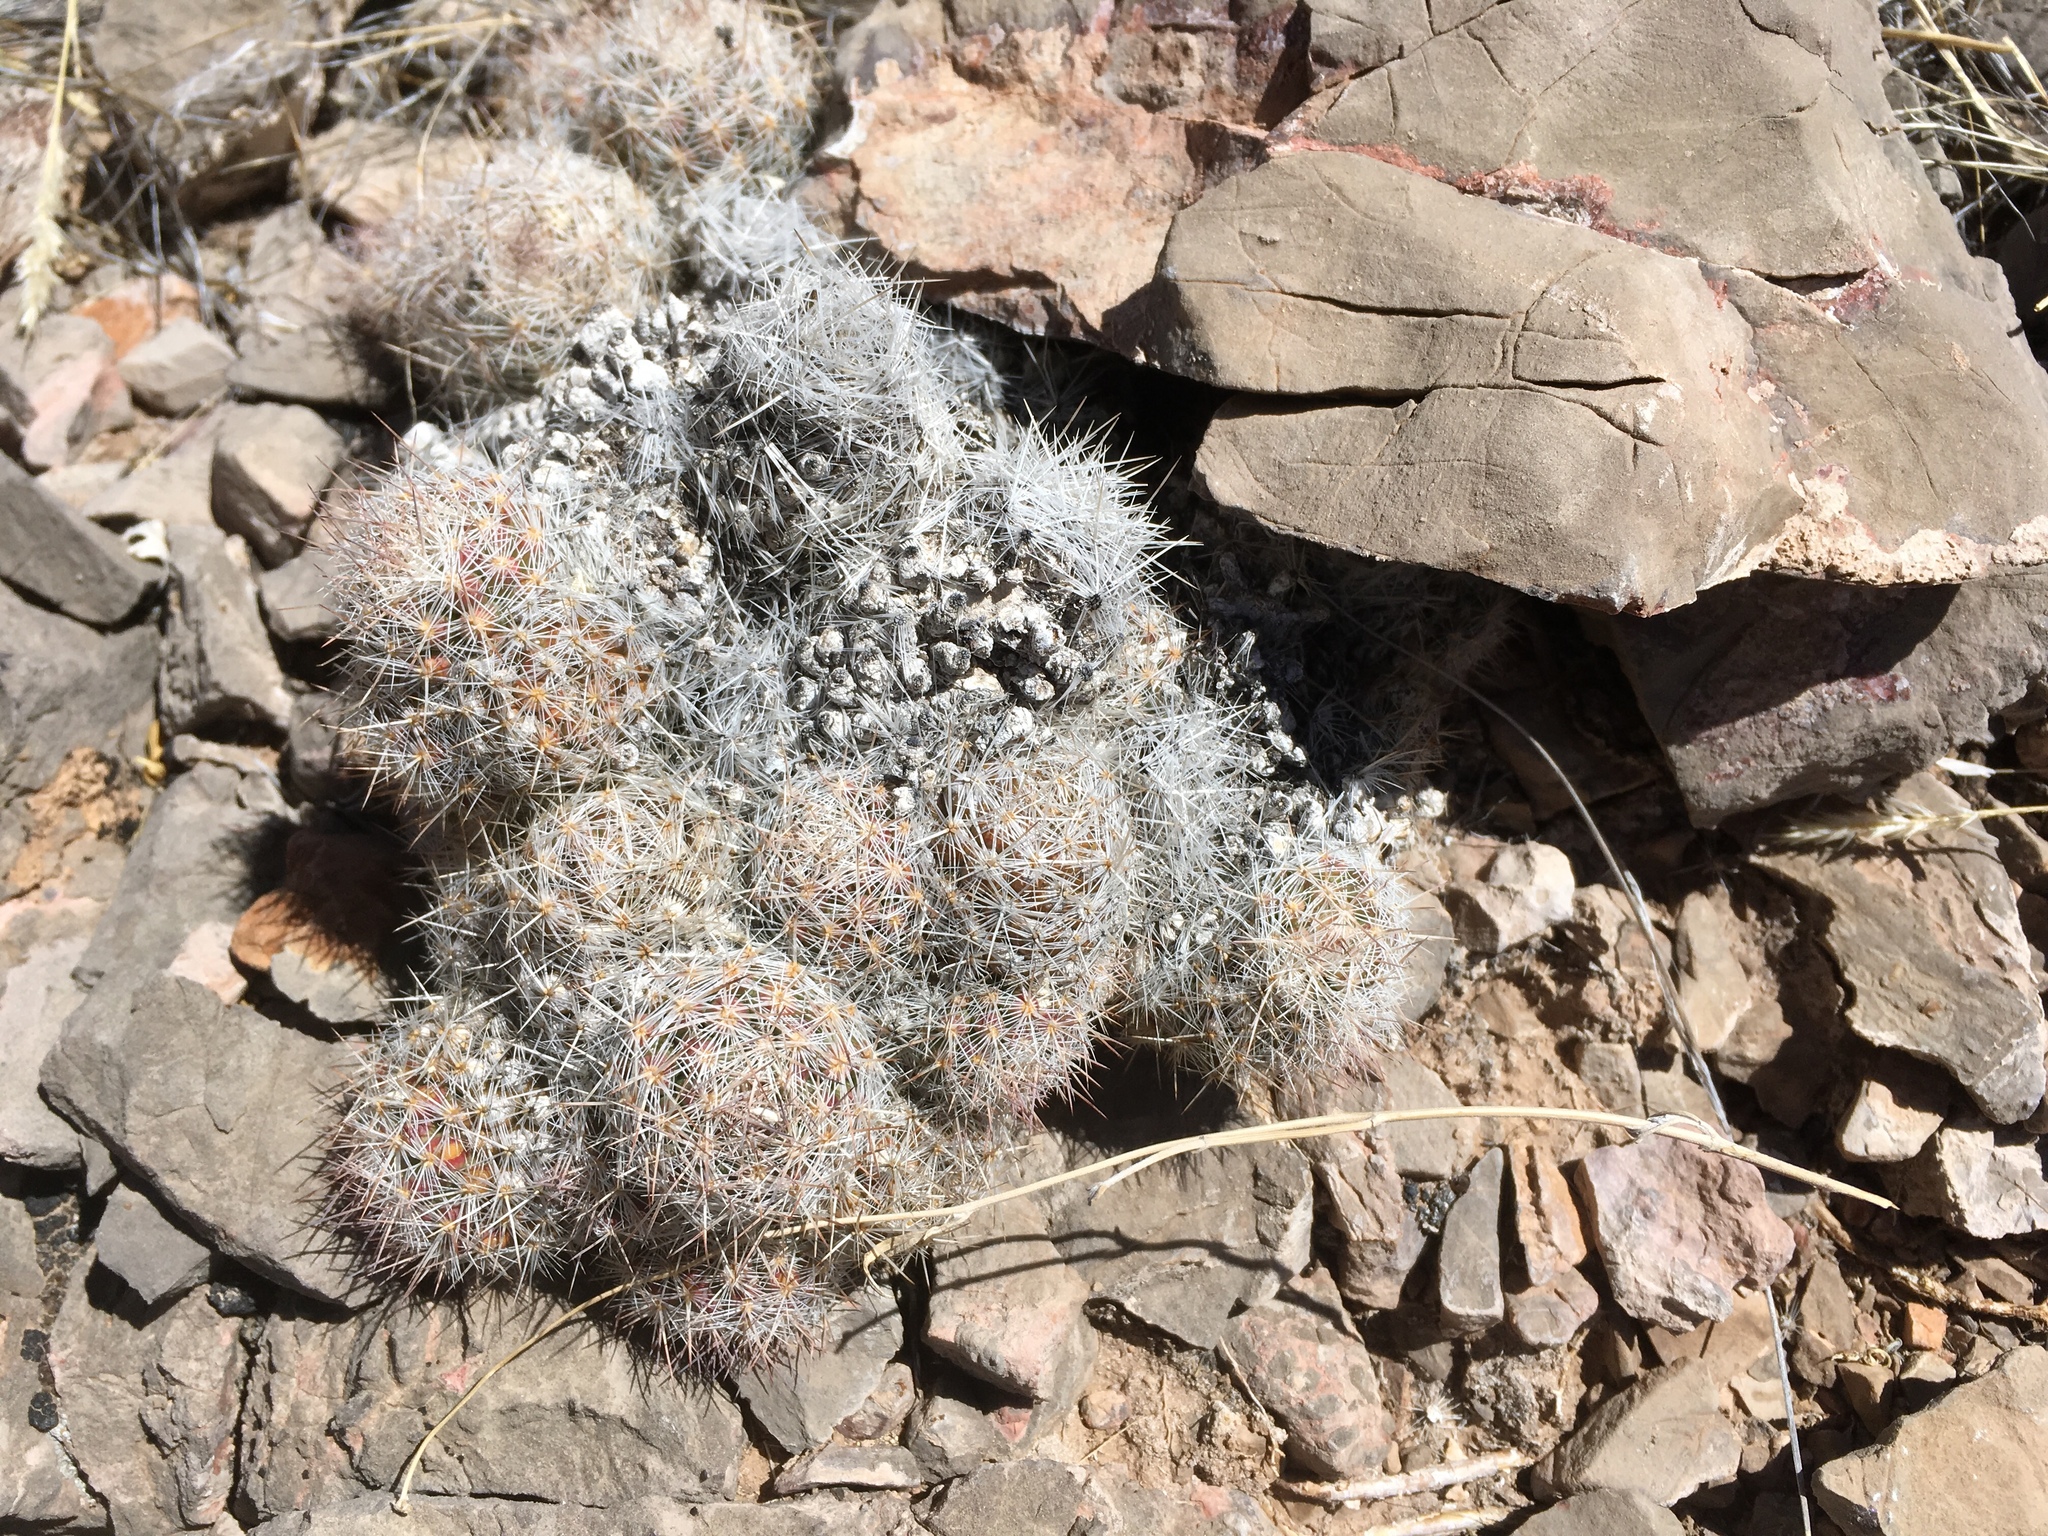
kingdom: Plantae
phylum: Tracheophyta
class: Magnoliopsida
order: Caryophyllales
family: Cactaceae
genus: Pelecyphora
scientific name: Pelecyphora tuberculosa
